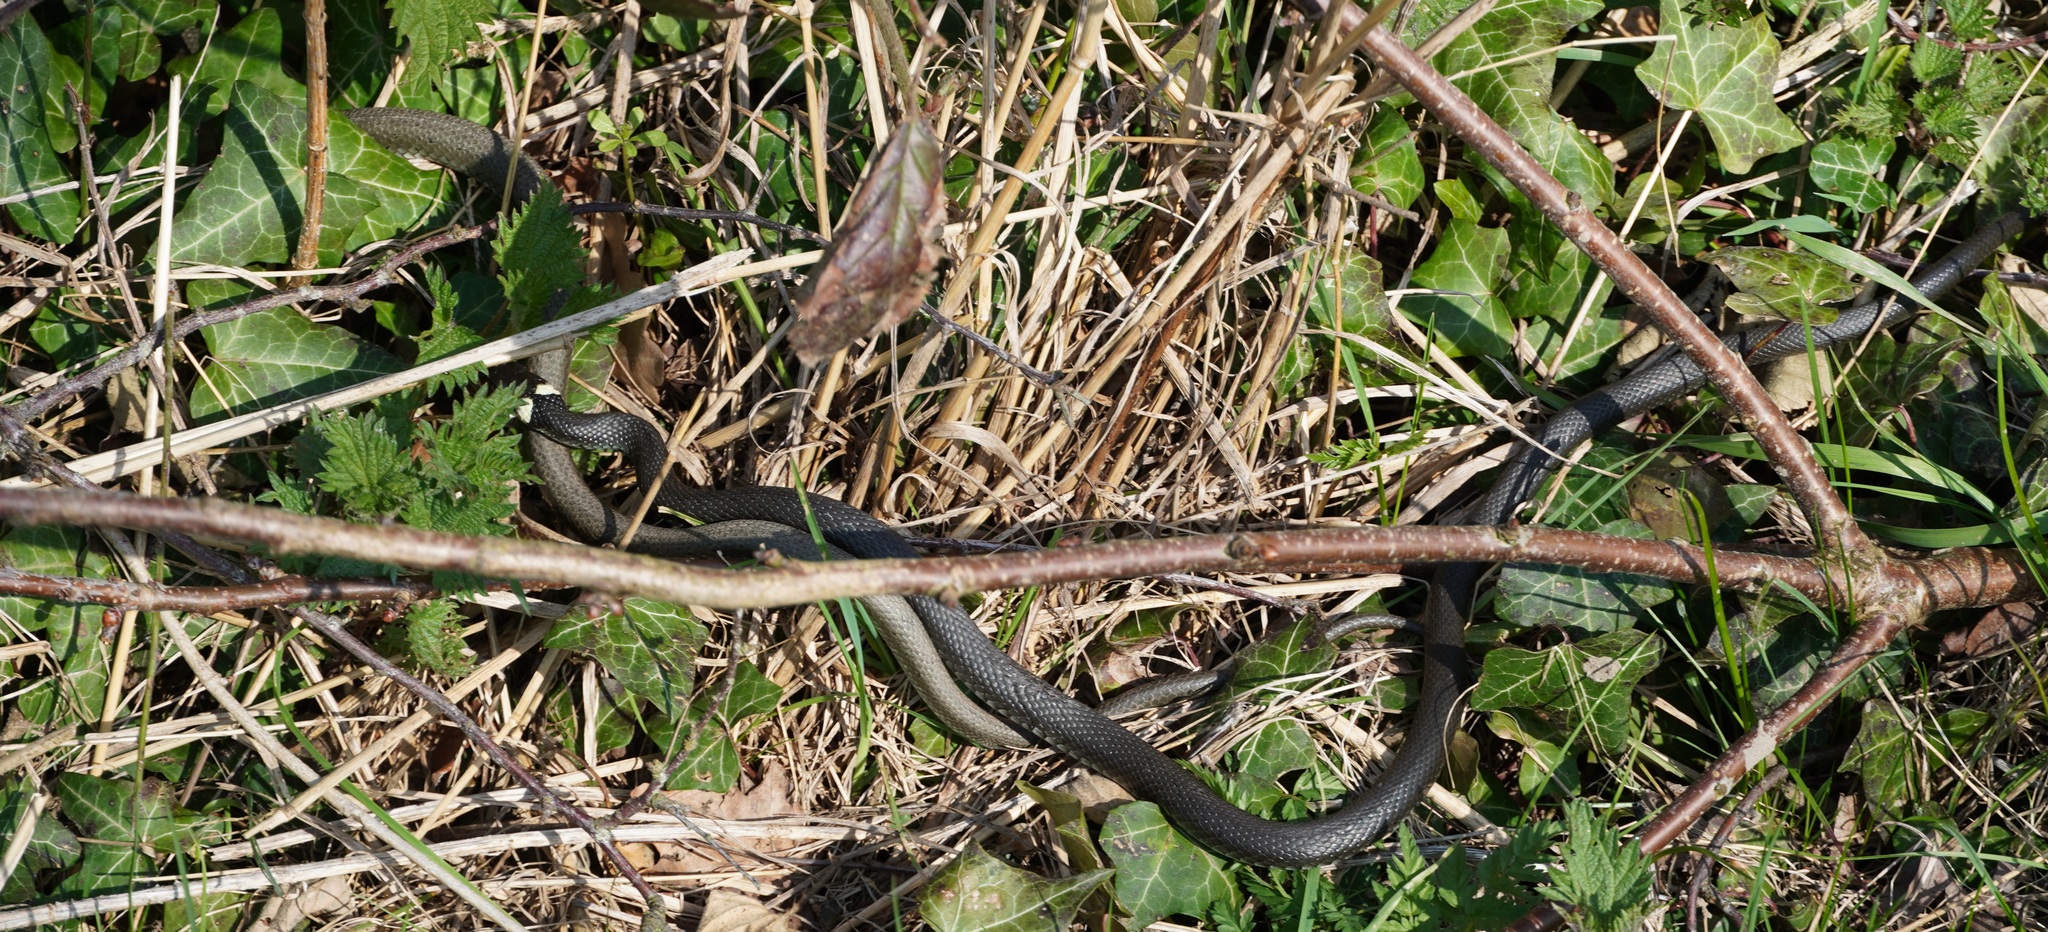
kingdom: Animalia
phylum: Chordata
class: Squamata
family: Colubridae
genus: Natrix
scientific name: Natrix natrix
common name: Grass snake
